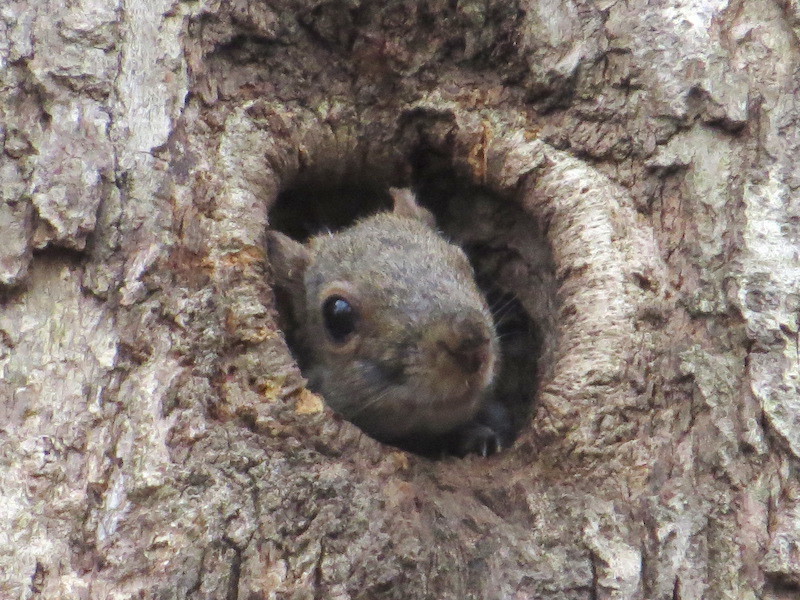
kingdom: Animalia
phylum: Chordata
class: Mammalia
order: Rodentia
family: Sciuridae
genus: Sciurus
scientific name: Sciurus carolinensis
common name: Eastern gray squirrel
